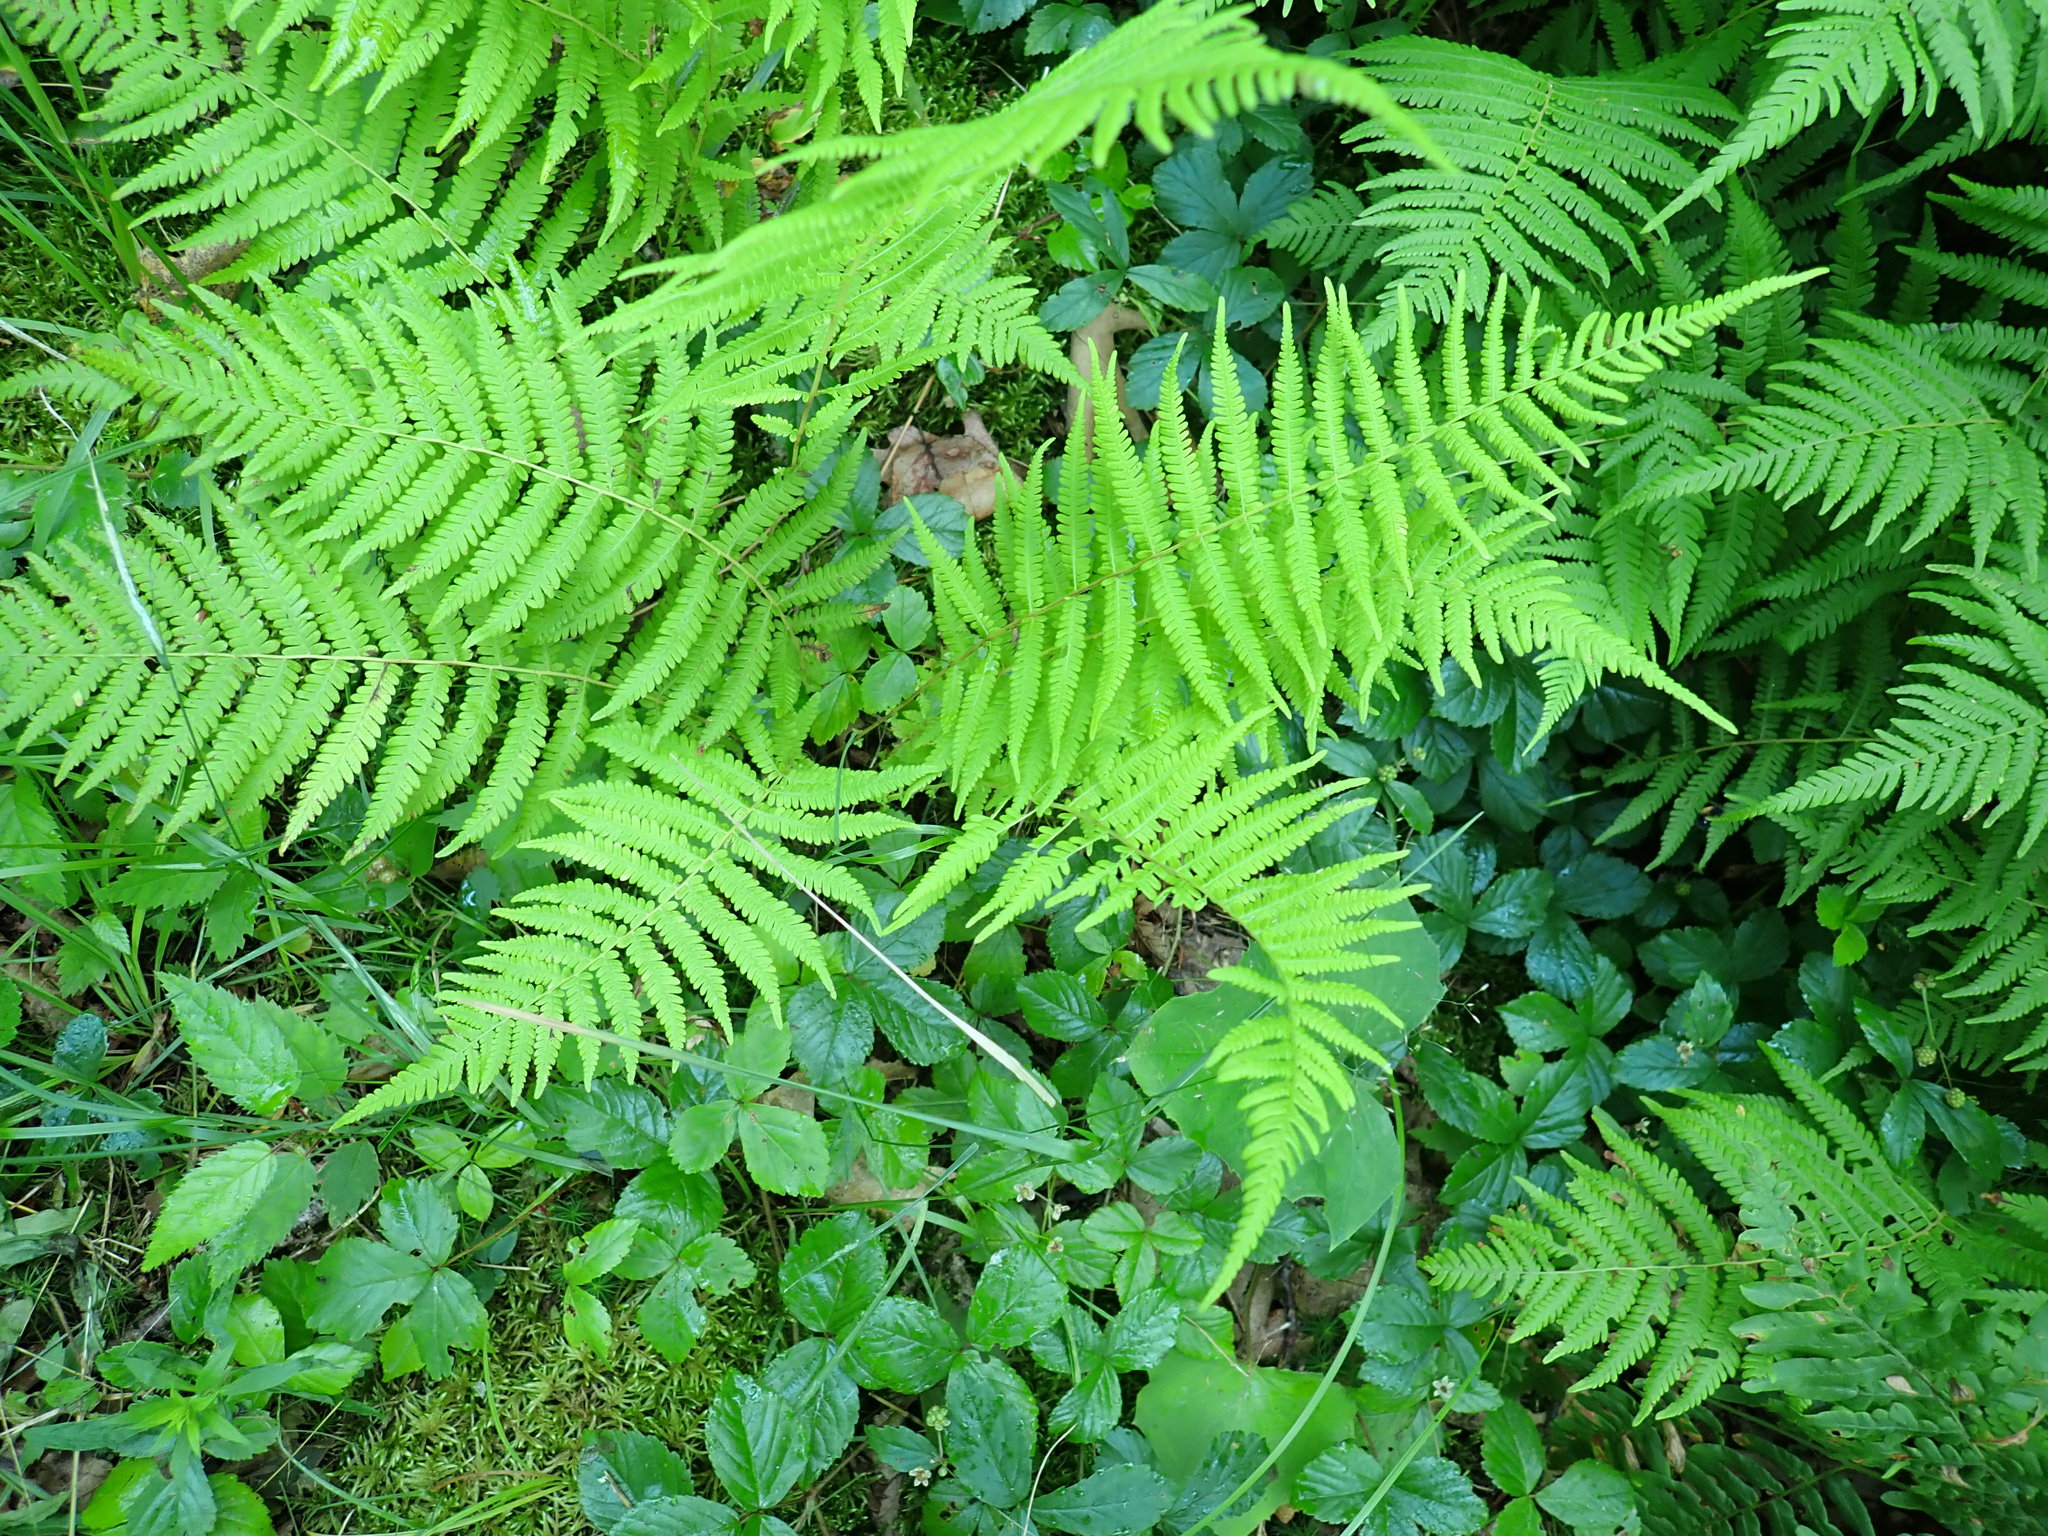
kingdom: Plantae
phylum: Tracheophyta
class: Polypodiopsida
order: Polypodiales
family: Thelypteridaceae
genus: Amauropelta
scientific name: Amauropelta noveboracensis
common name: New york fern
